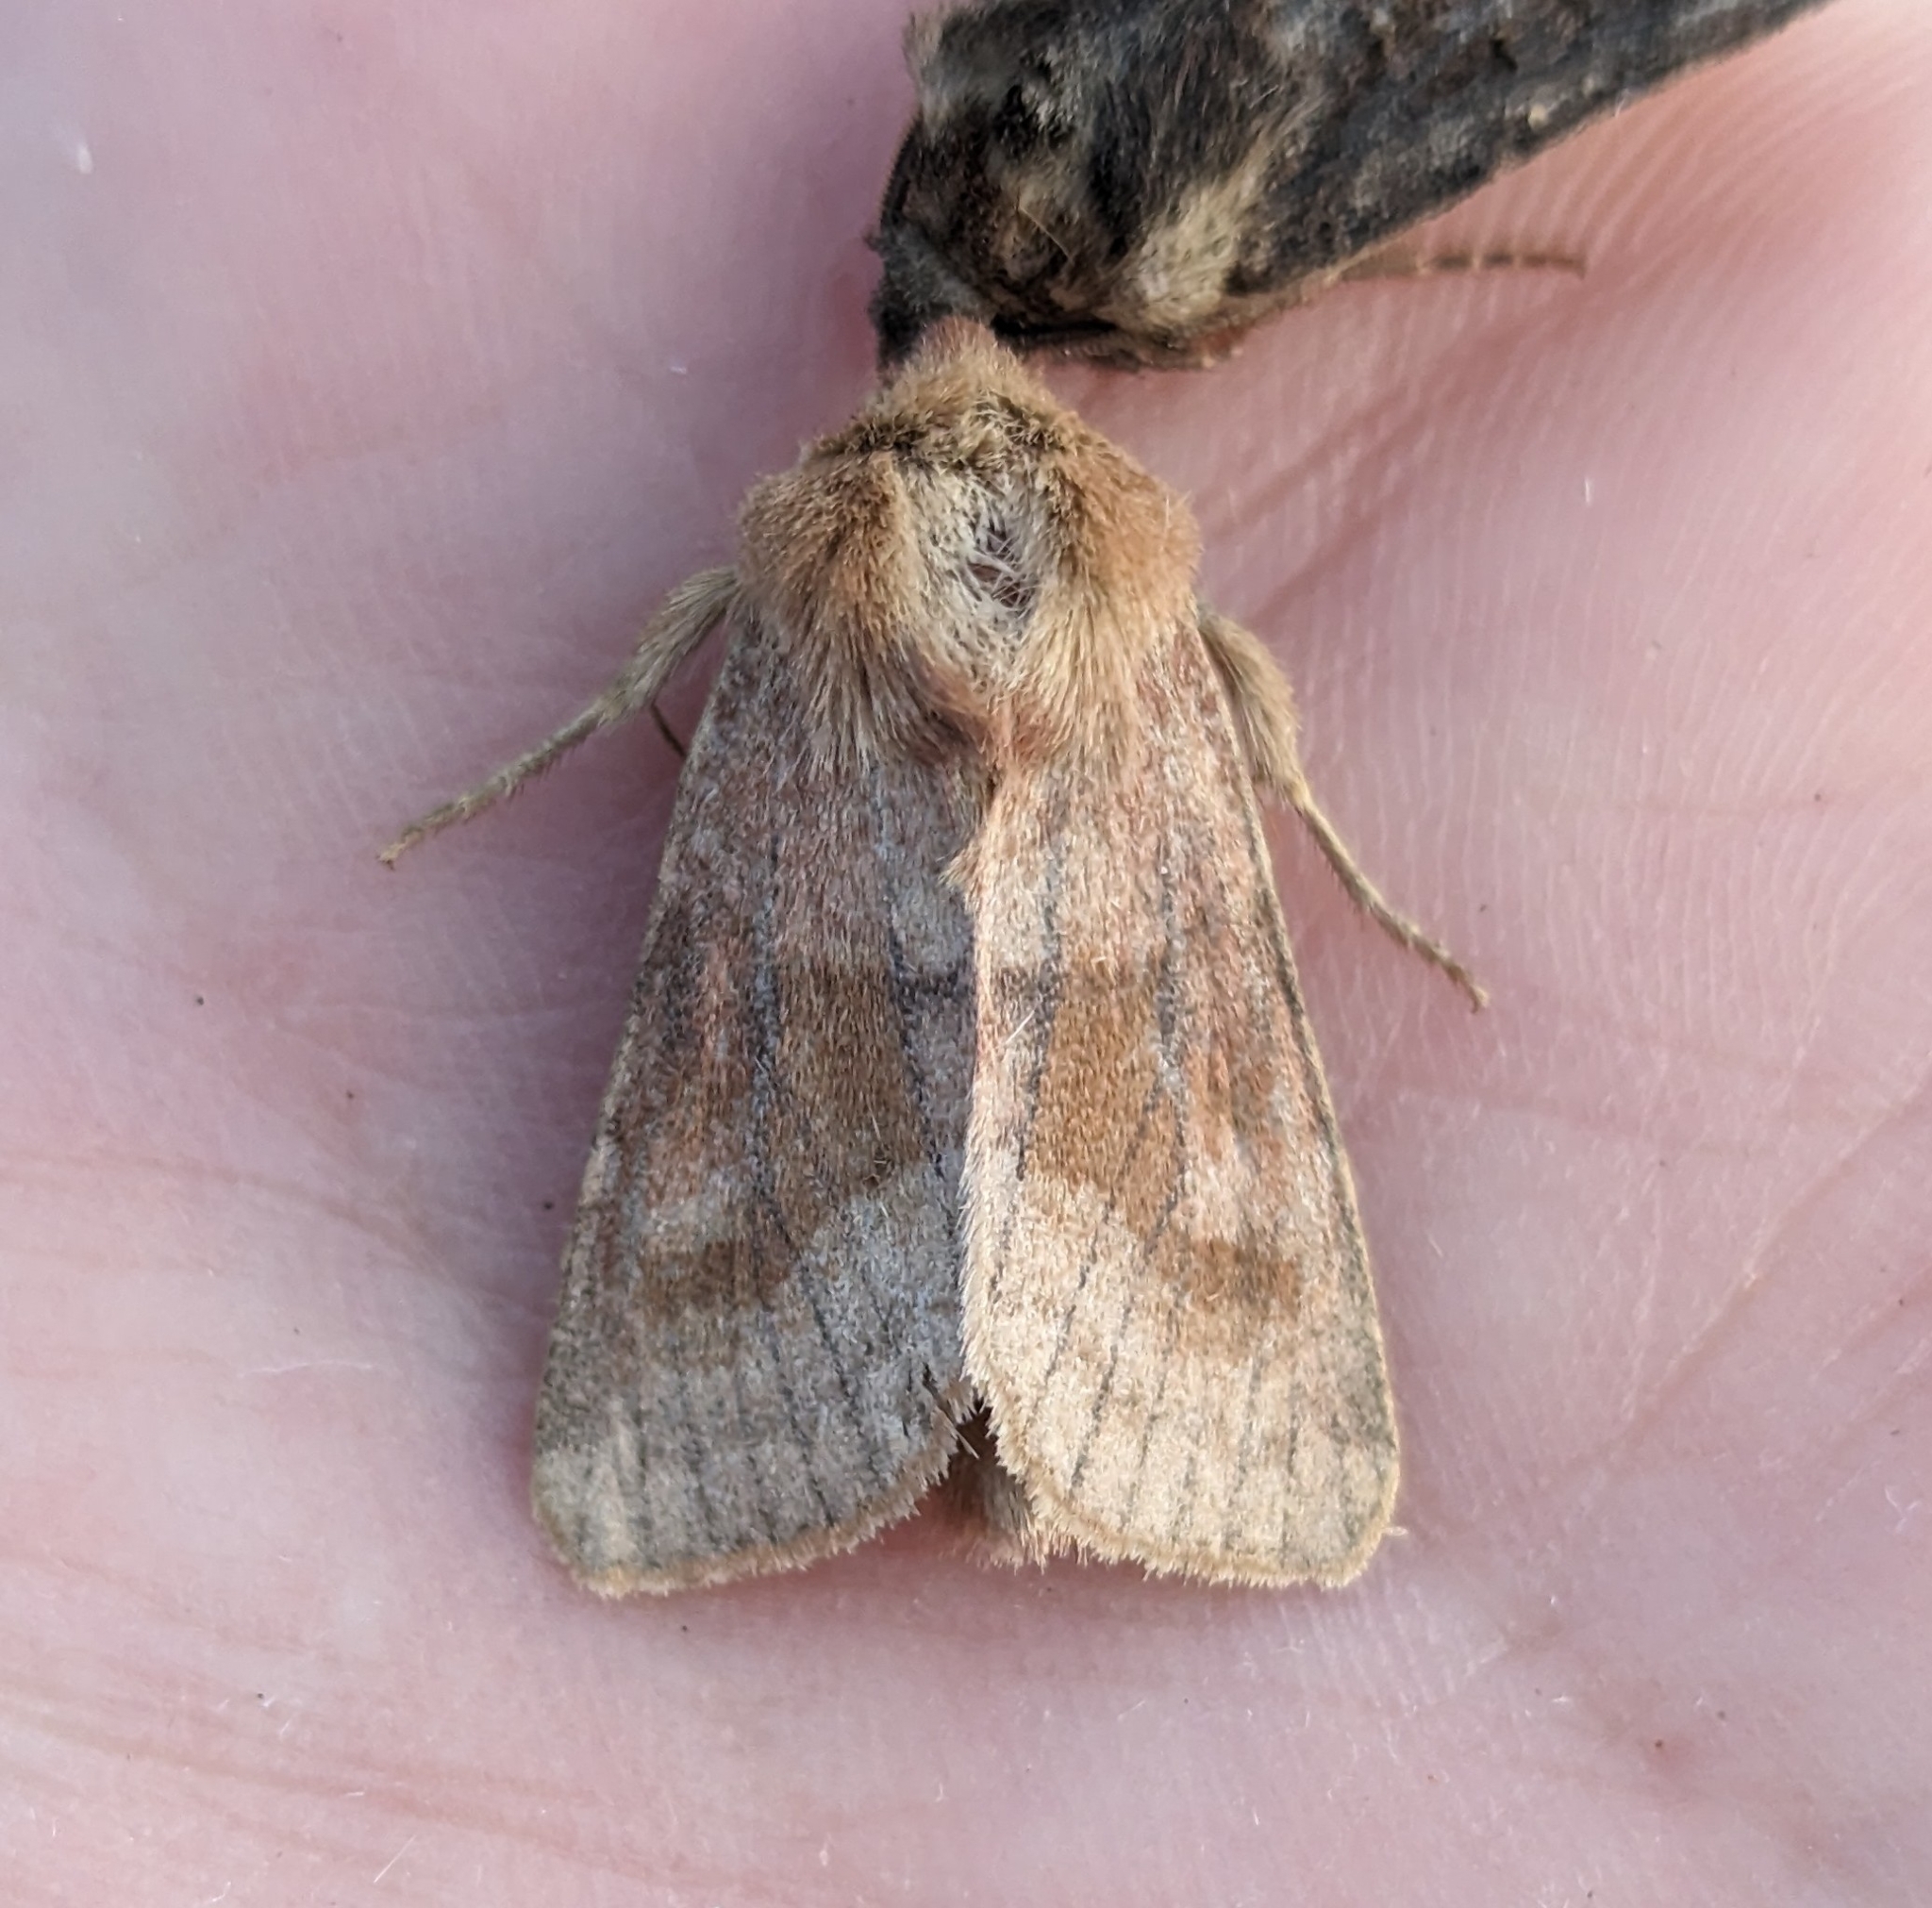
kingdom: Animalia
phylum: Arthropoda
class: Insecta
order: Lepidoptera
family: Noctuidae
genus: Nephelodes
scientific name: Nephelodes minians
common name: Bronzed cutworm
